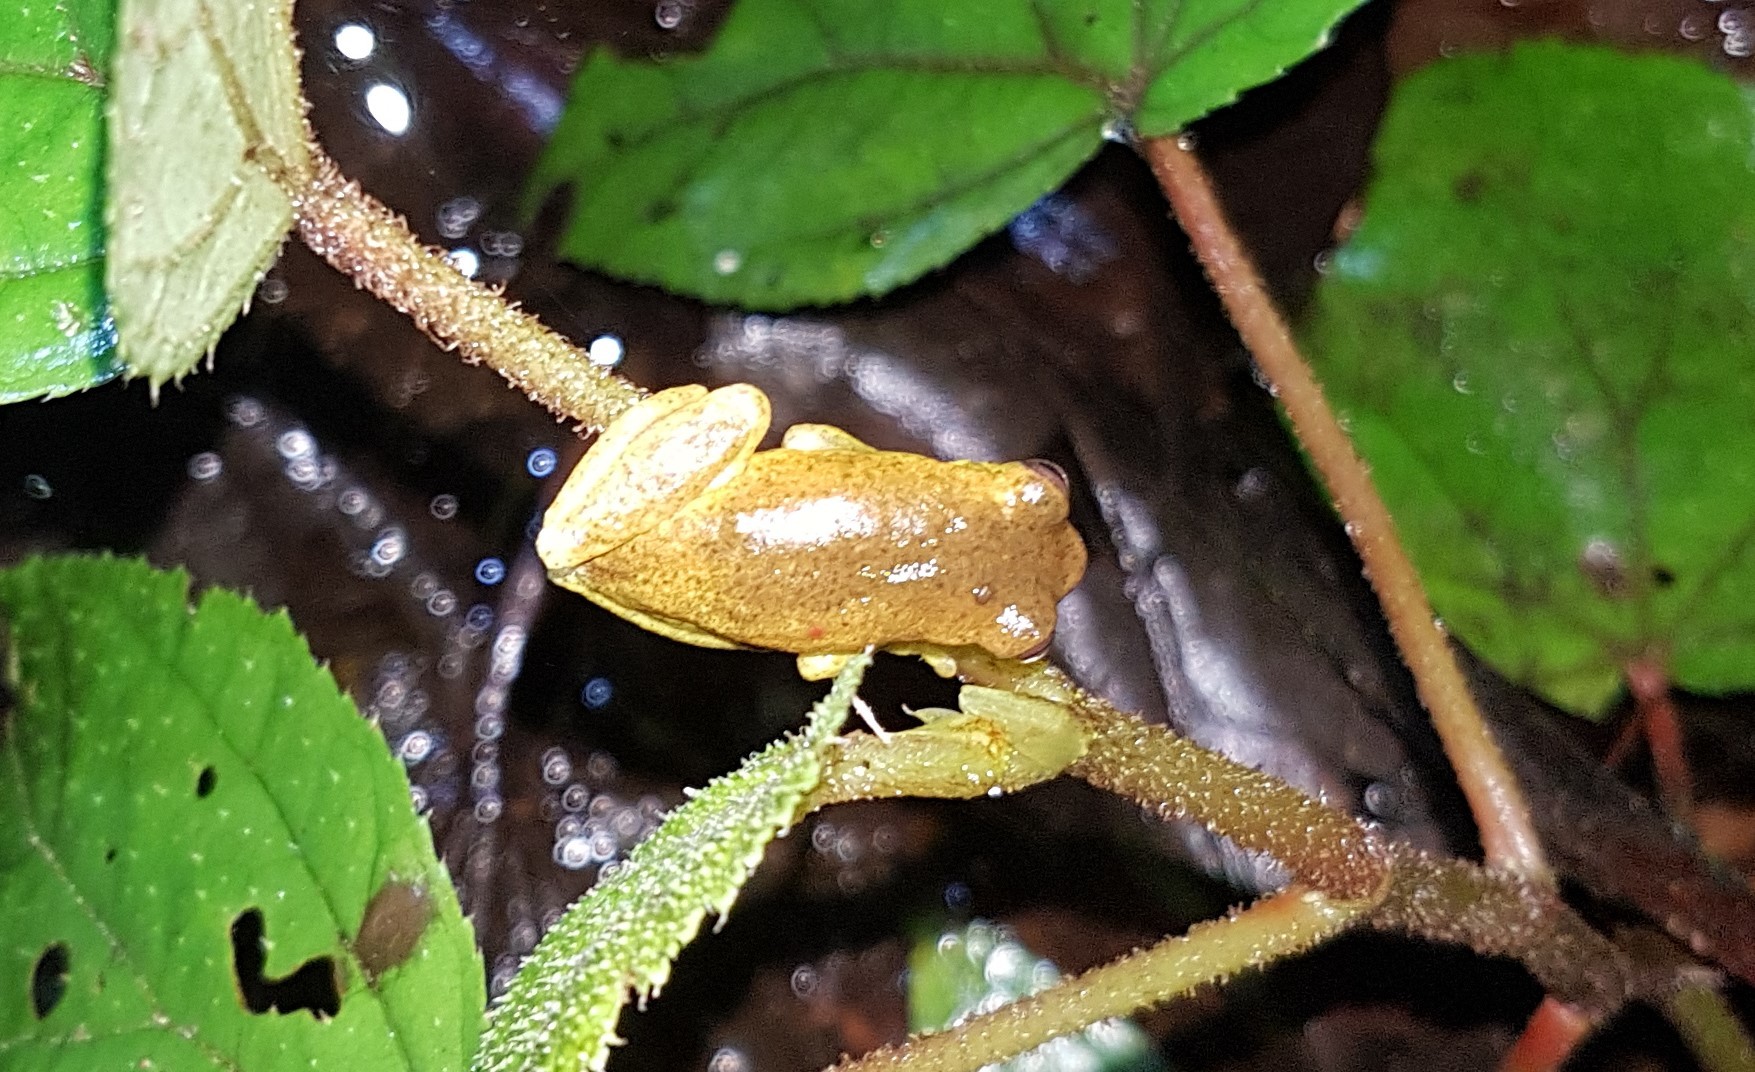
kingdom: Animalia
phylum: Chordata
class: Amphibia
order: Anura
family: Hylidae
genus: Dendropsophus
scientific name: Dendropsophus carnifex
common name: Executioner treefrog
